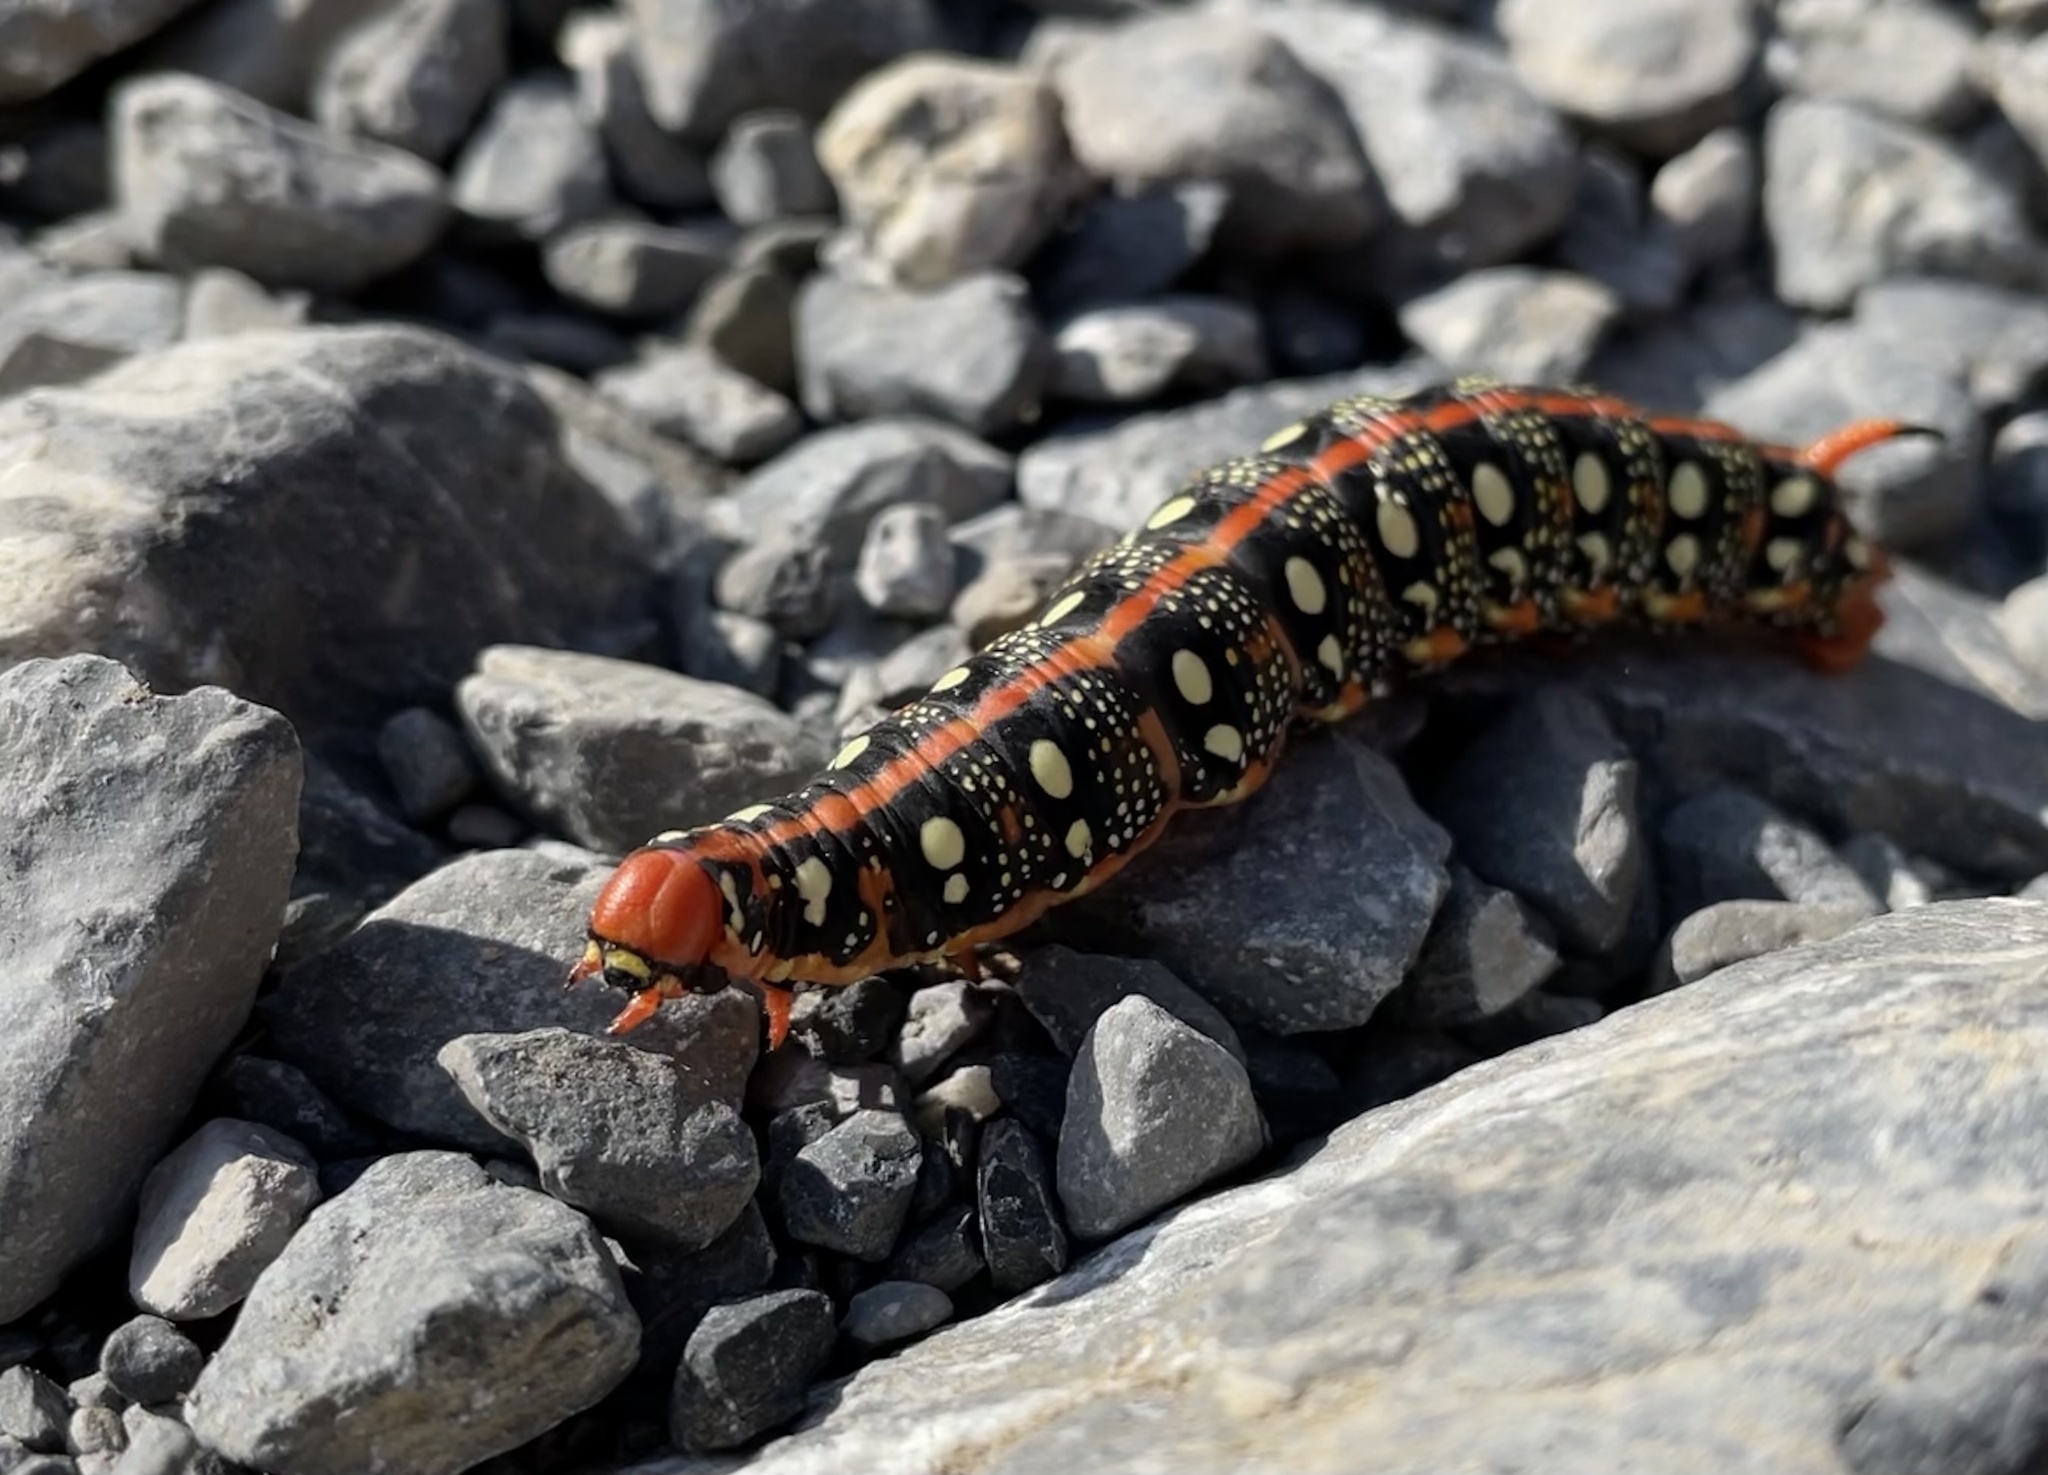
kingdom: Animalia
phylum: Arthropoda
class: Insecta
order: Lepidoptera
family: Sphingidae
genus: Hyles
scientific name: Hyles euphorbiae
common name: Spurge hawk-moth
